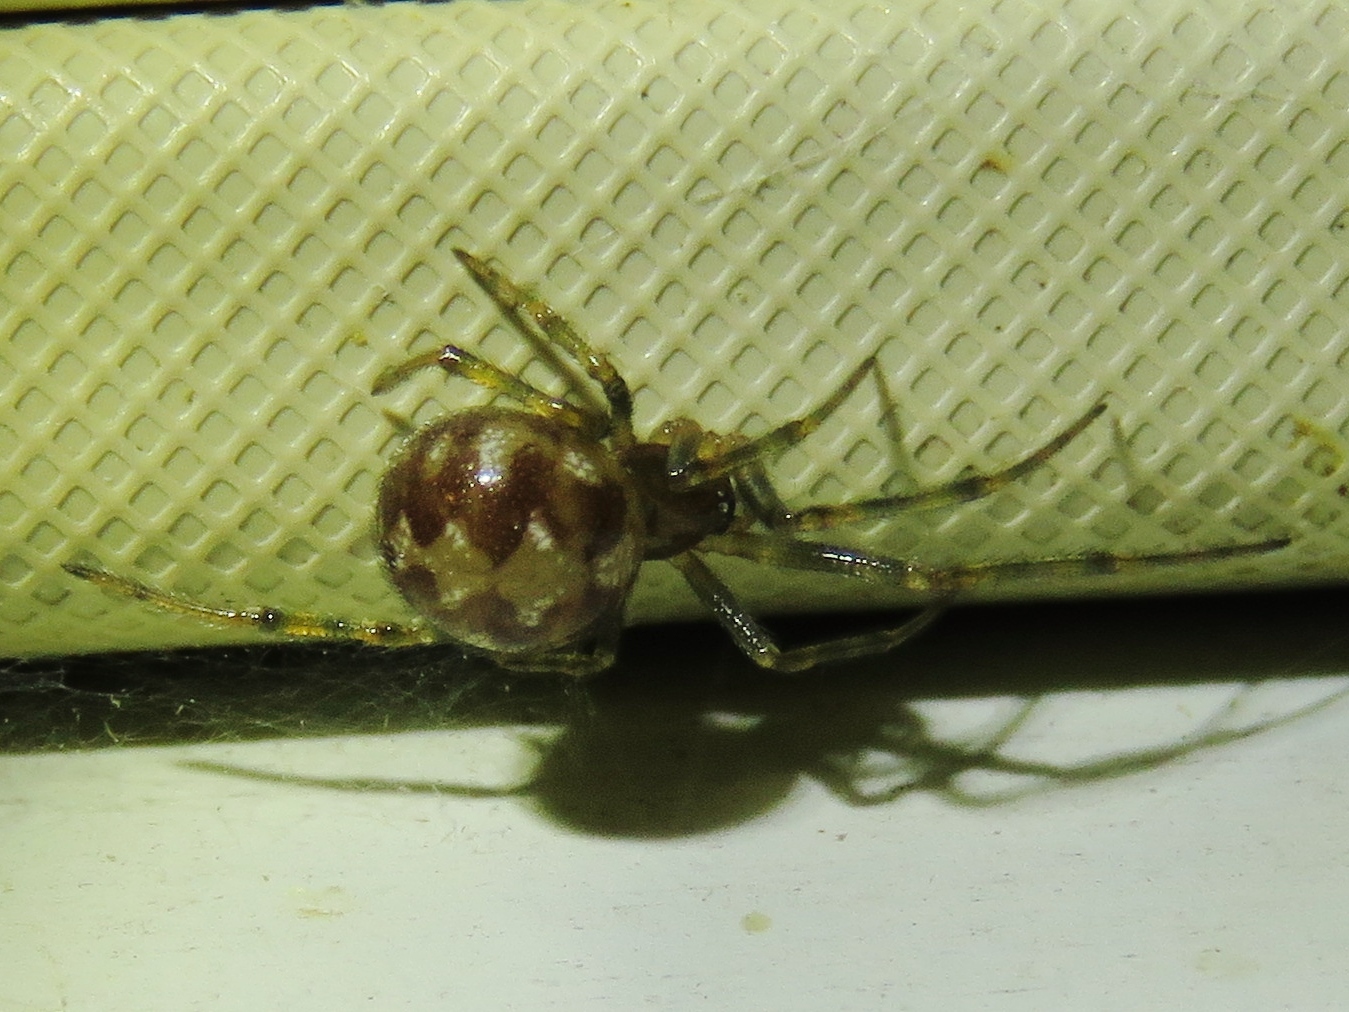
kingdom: Animalia
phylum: Arthropoda
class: Arachnida
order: Araneae
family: Theridiidae
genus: Steatoda
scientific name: Steatoda triangulosa
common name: Triangulate bud spider
